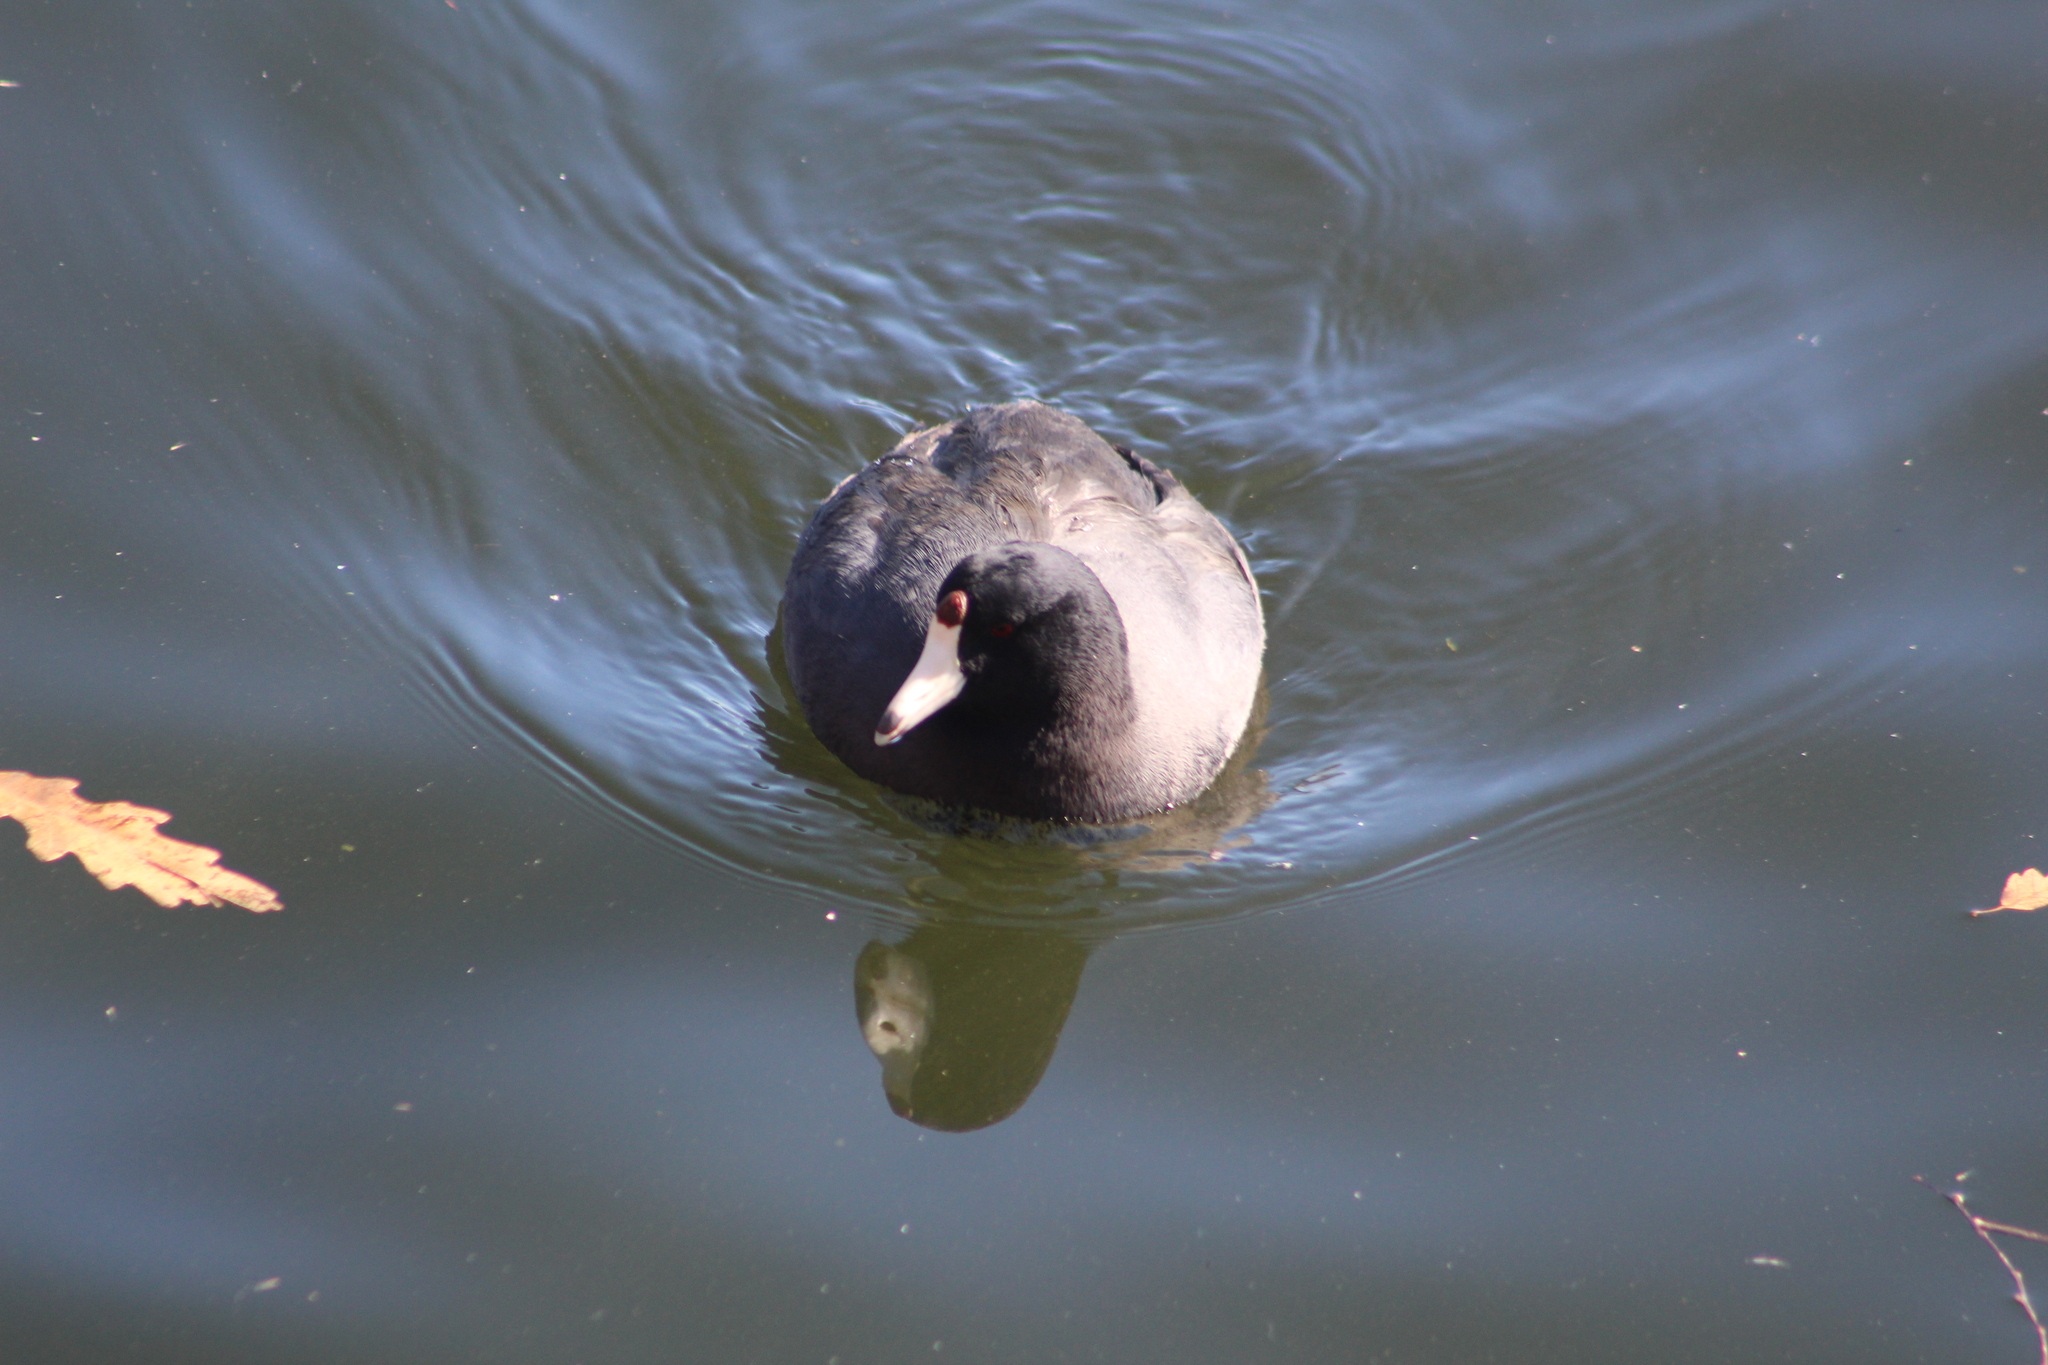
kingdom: Animalia
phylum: Chordata
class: Aves
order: Gruiformes
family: Rallidae
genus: Fulica
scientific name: Fulica americana
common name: American coot
